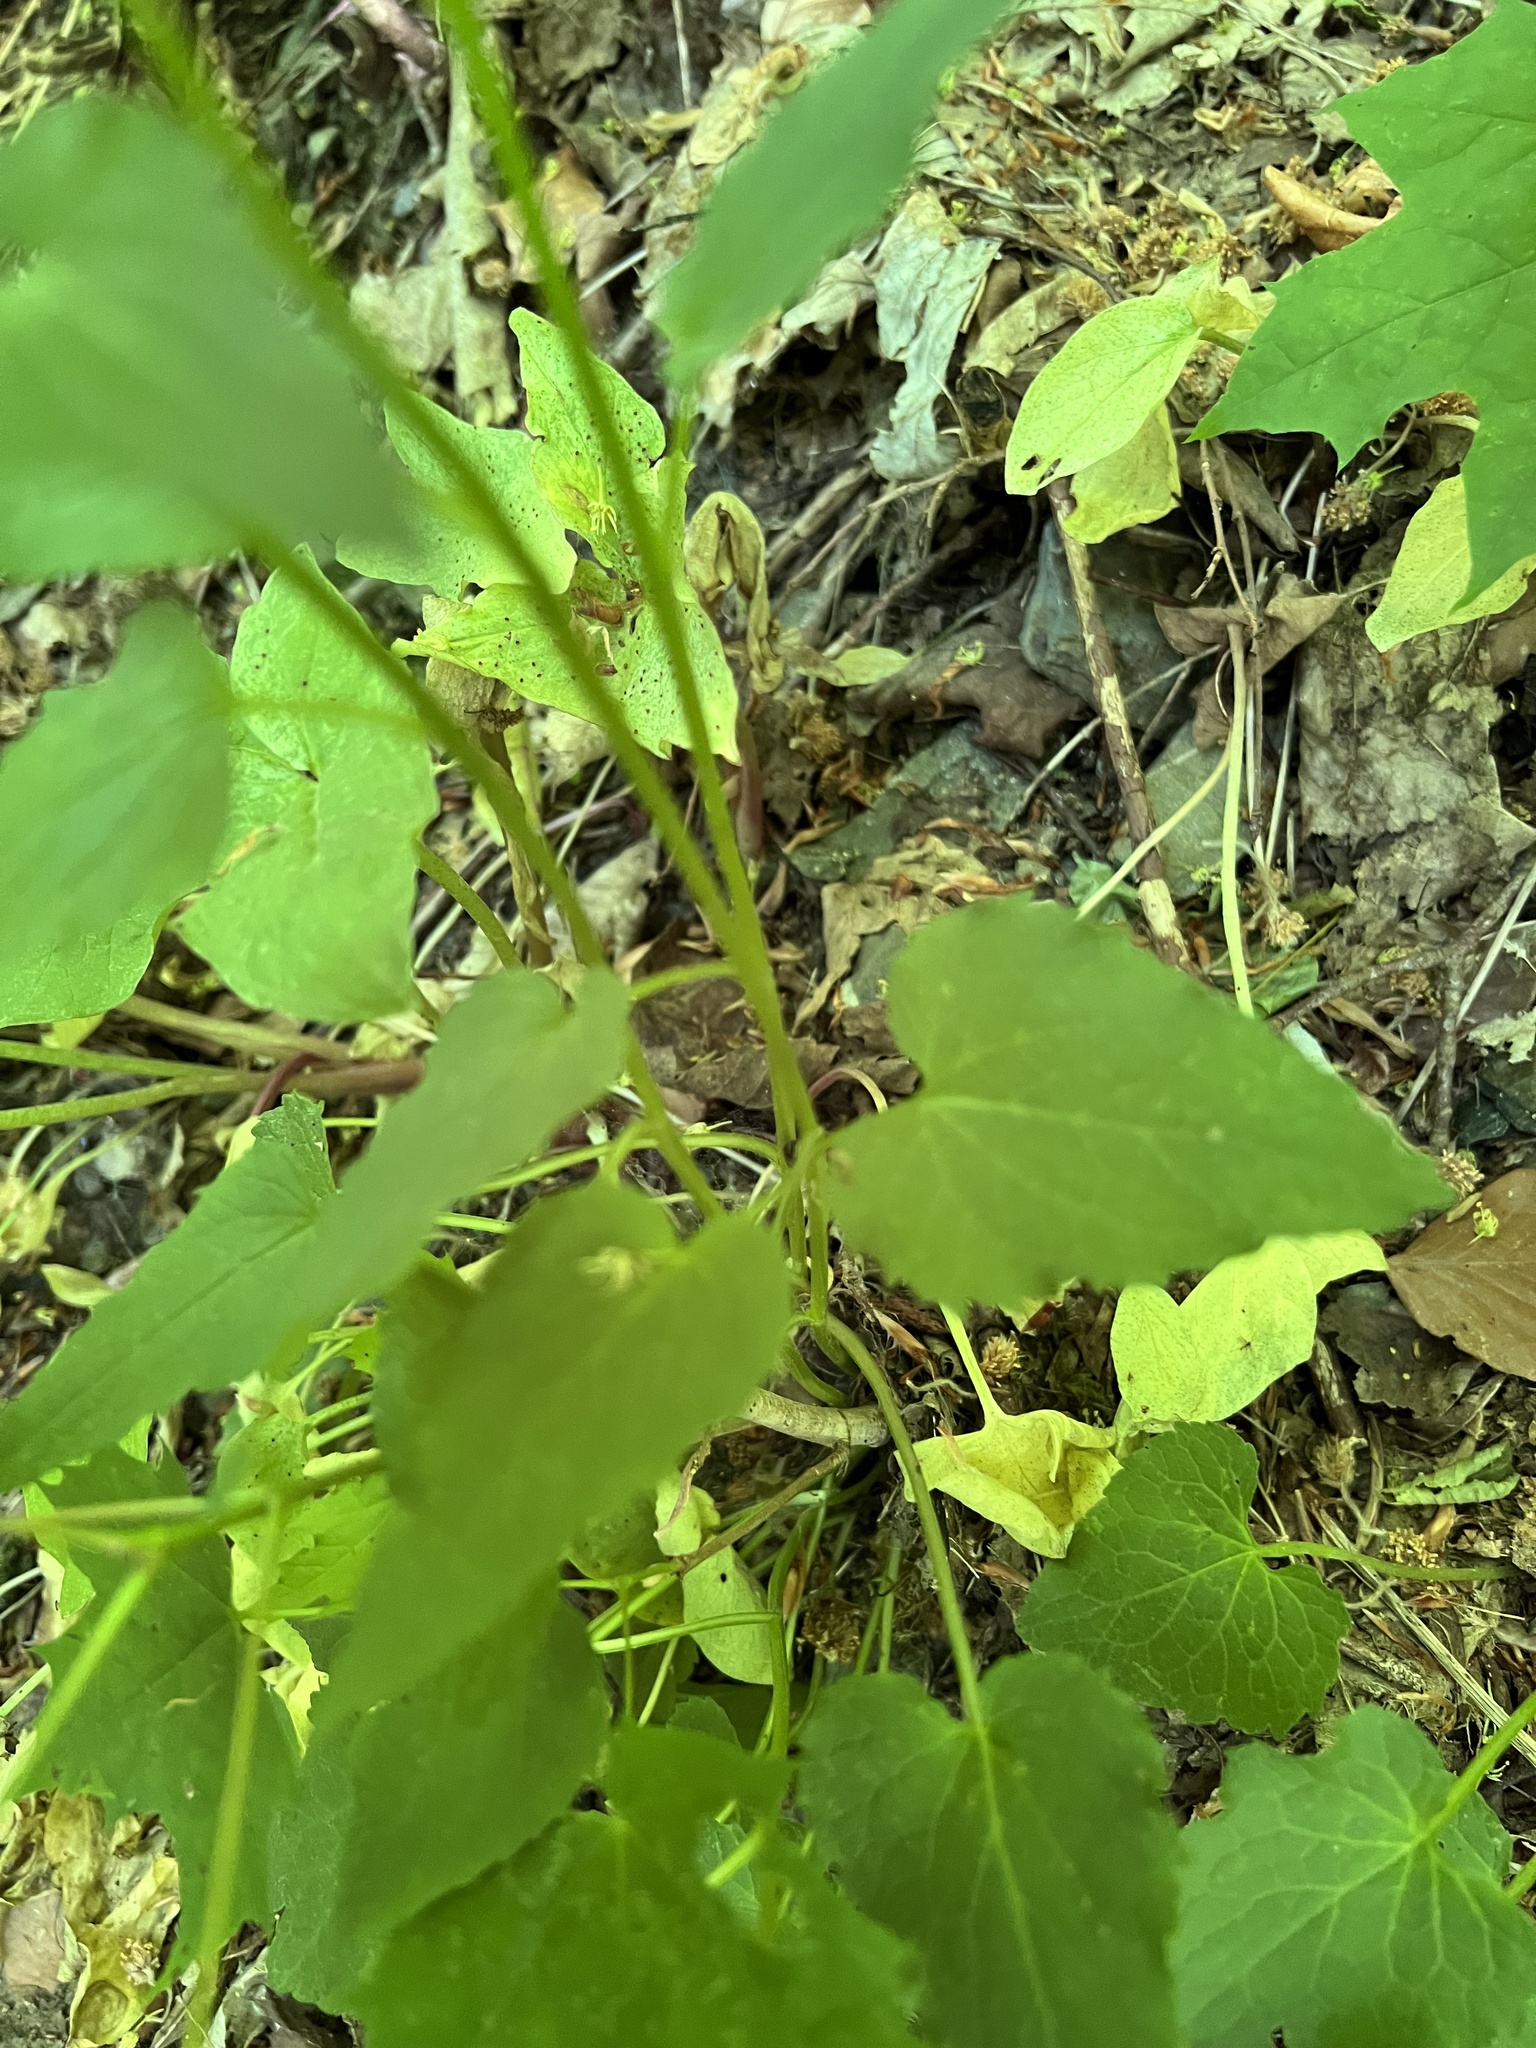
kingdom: Plantae
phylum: Tracheophyta
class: Magnoliopsida
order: Asterales
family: Campanulaceae
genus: Phyteuma
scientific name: Phyteuma spicatum
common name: Spiked rampion
